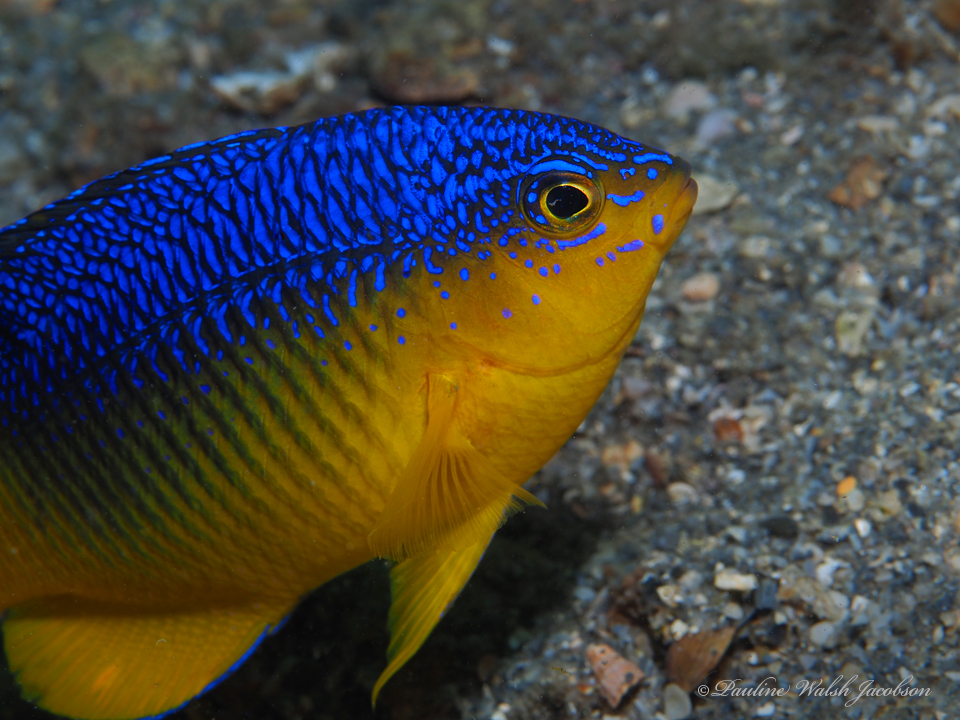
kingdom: Animalia
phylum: Chordata
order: Perciformes
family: Pomacentridae
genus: Stegastes
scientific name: Stegastes xanthurus
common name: Cocoa damselfish
